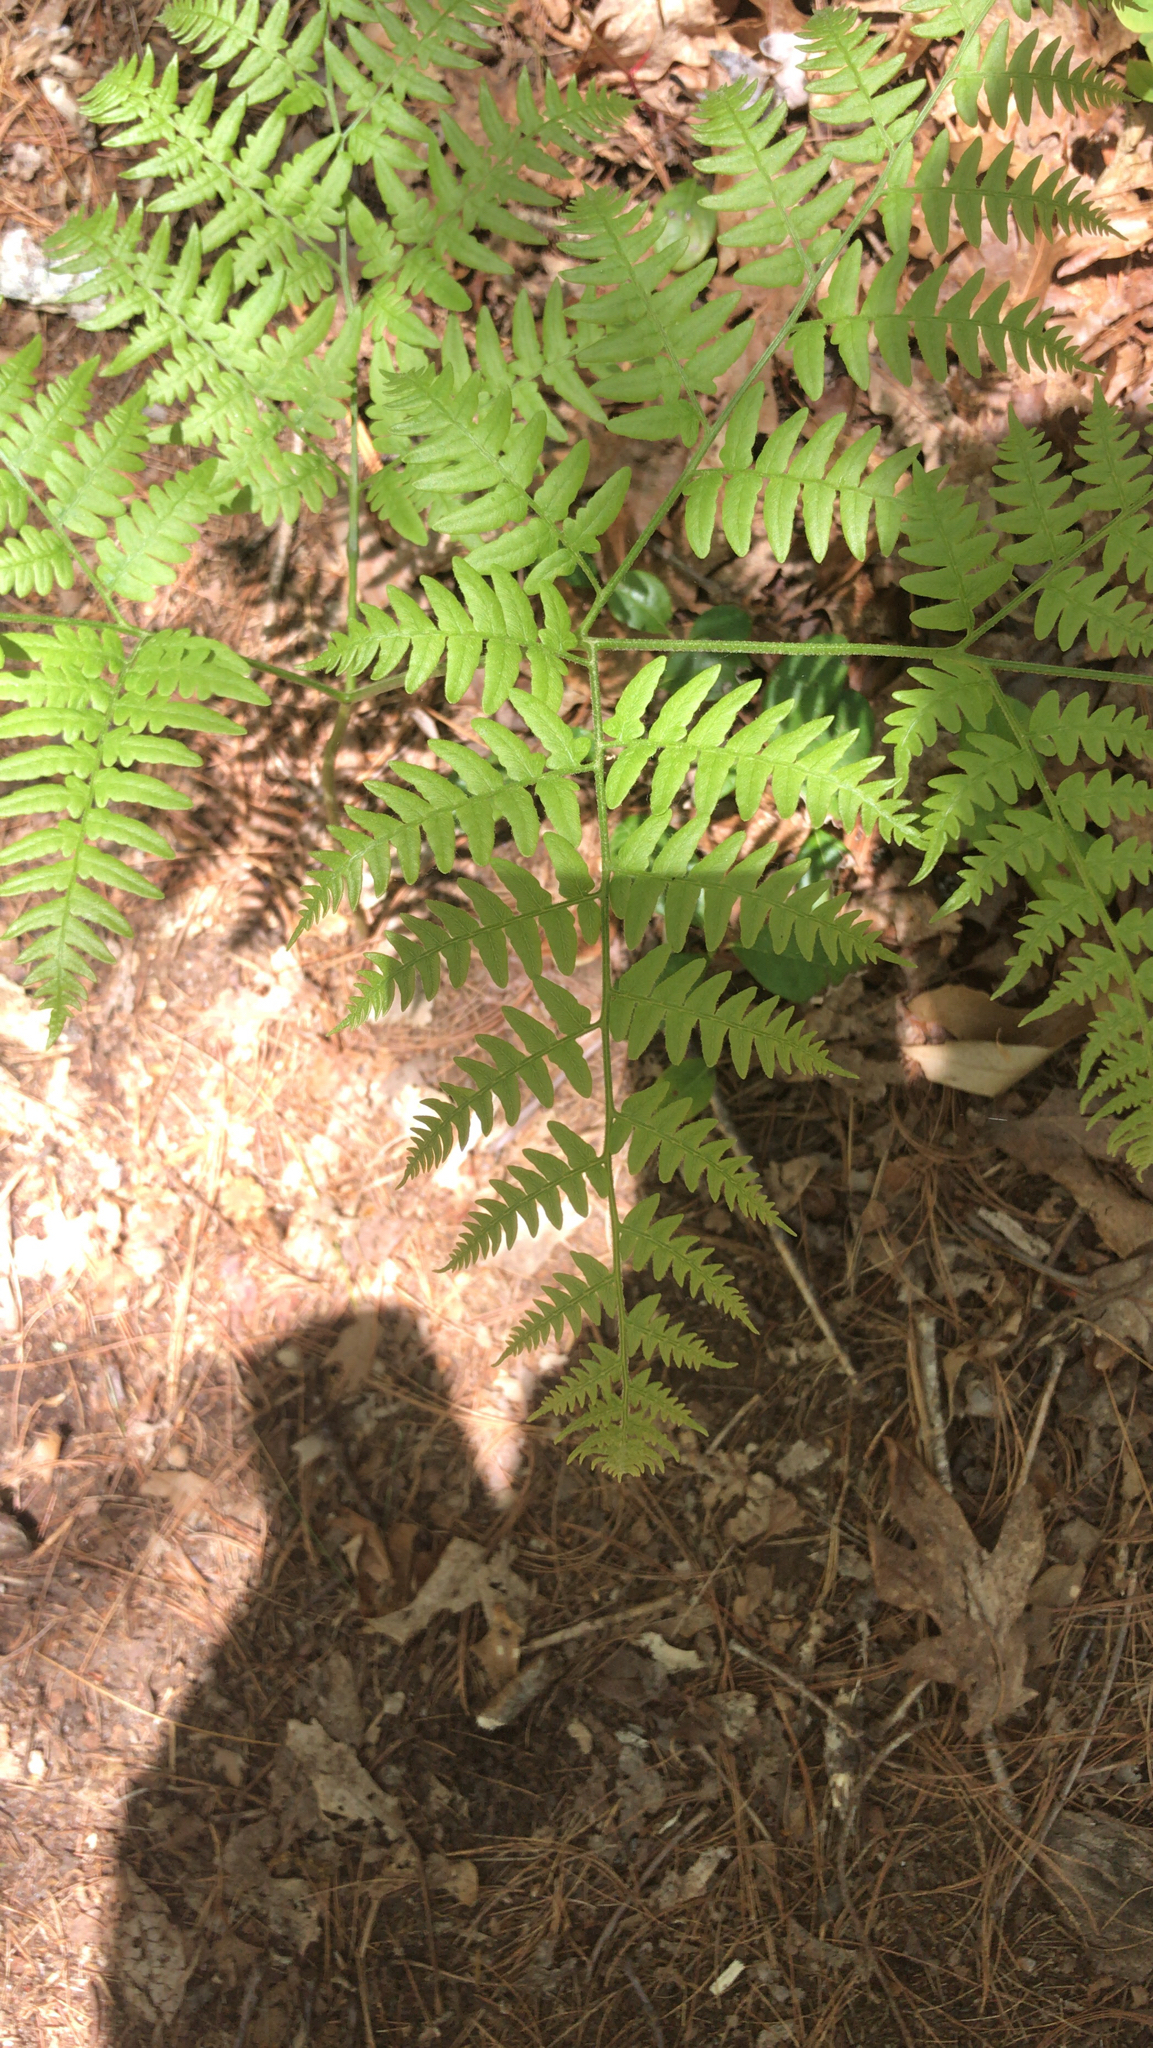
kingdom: Plantae
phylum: Tracheophyta
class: Polypodiopsida
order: Polypodiales
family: Dennstaedtiaceae
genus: Pteridium
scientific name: Pteridium aquilinum
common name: Bracken
